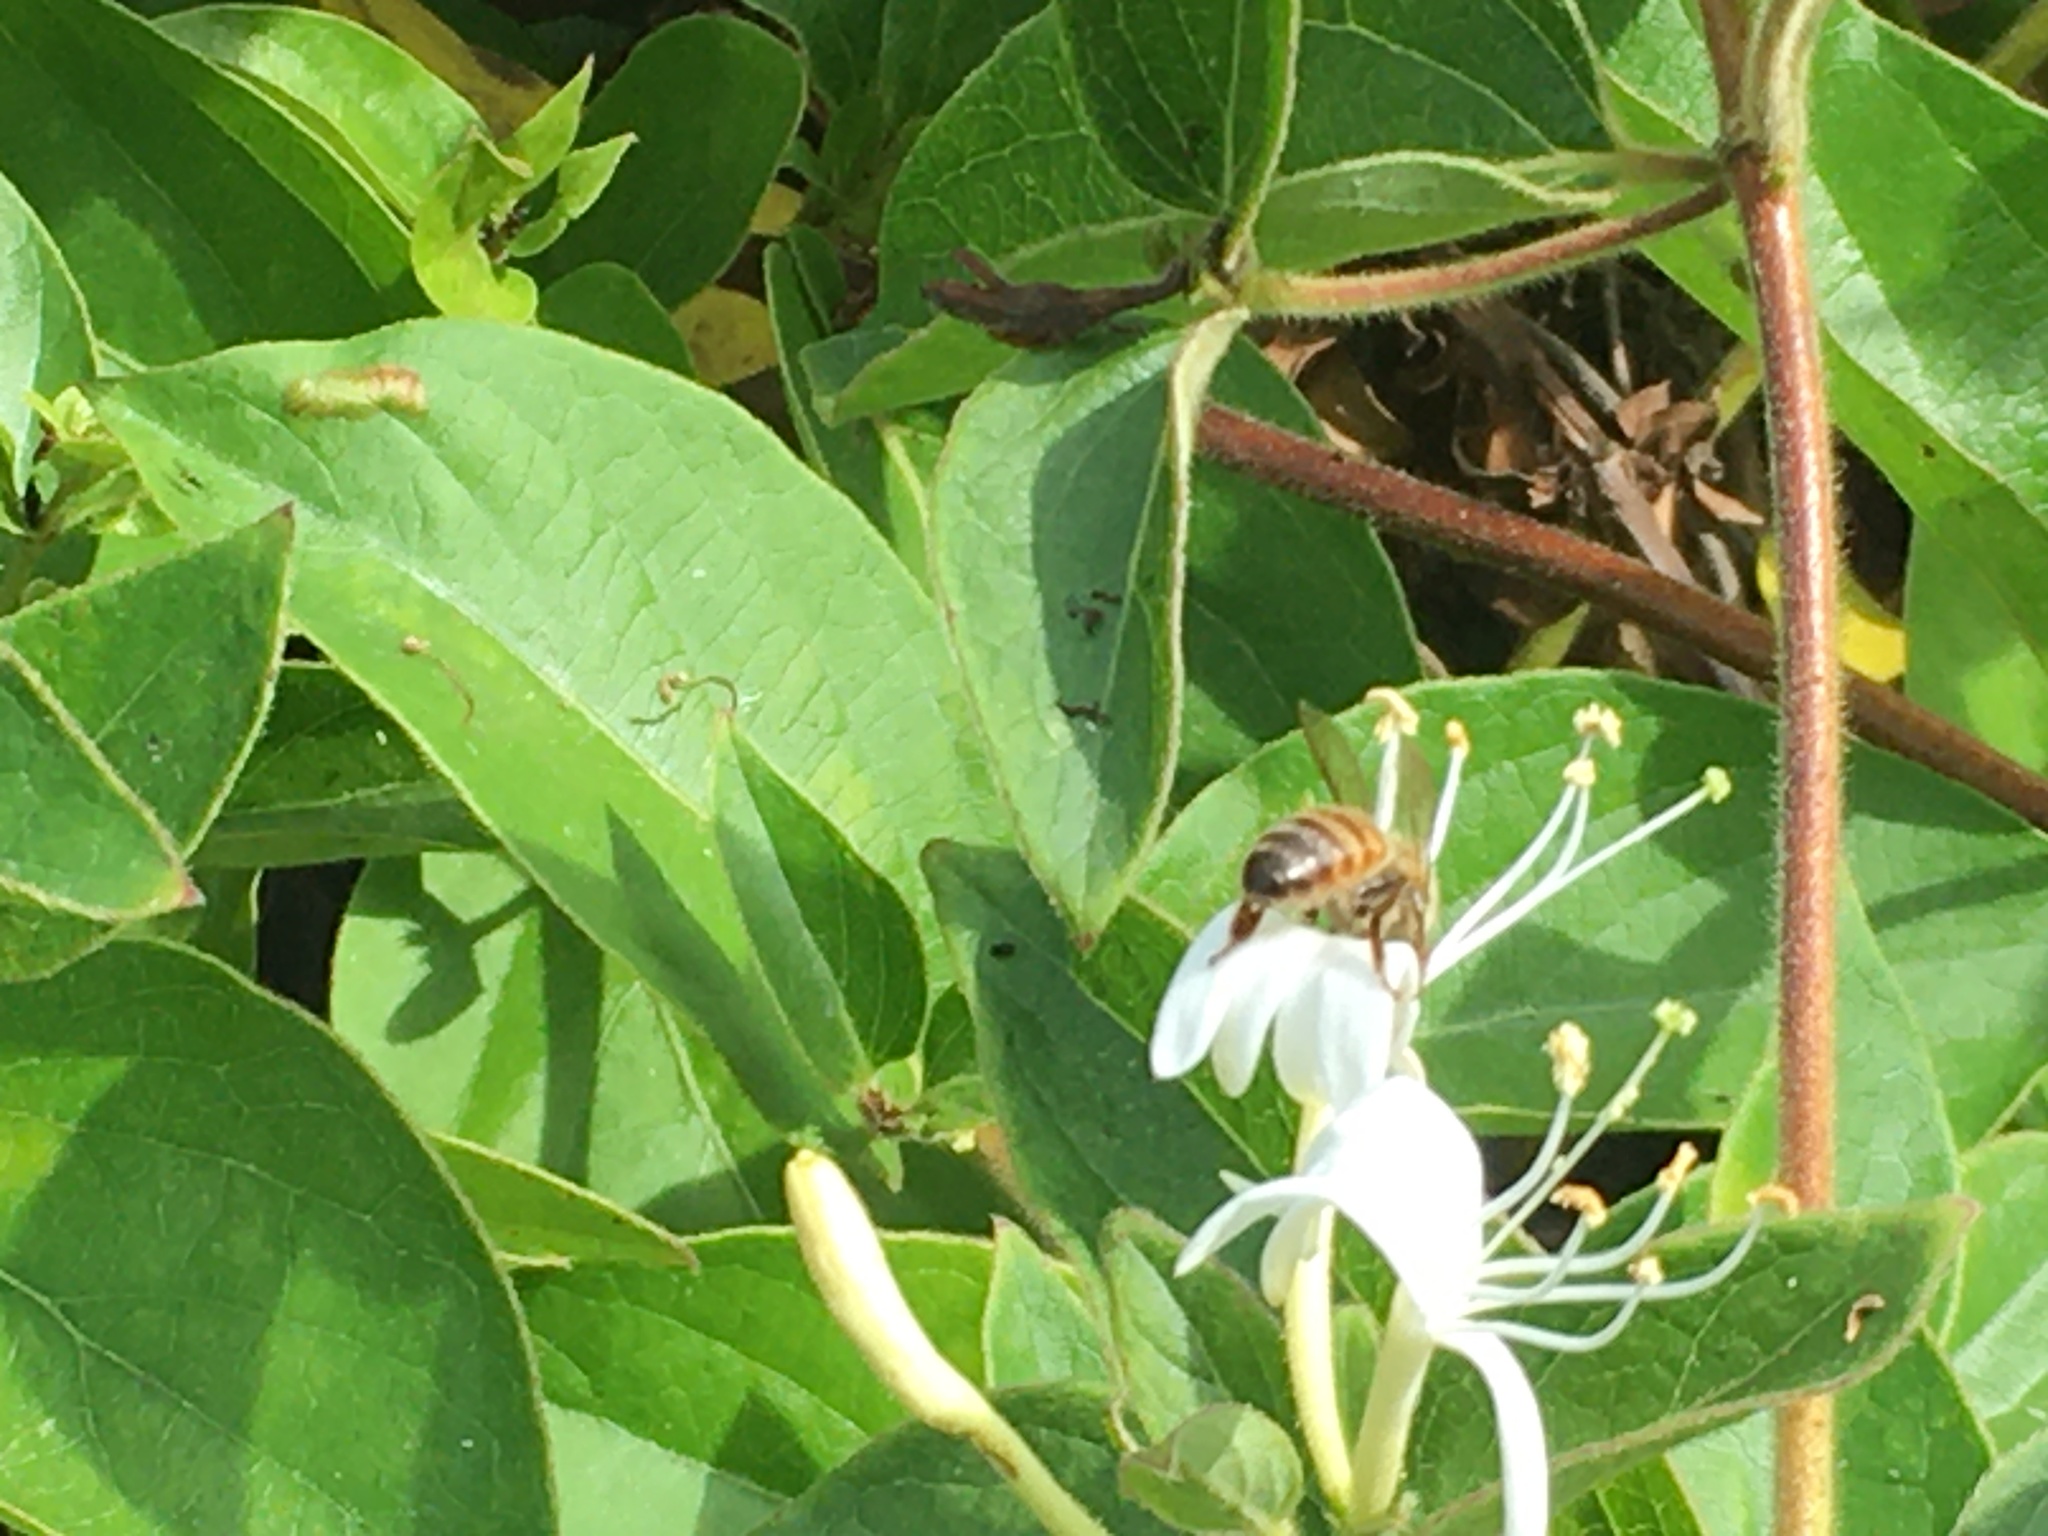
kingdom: Animalia
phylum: Arthropoda
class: Insecta
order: Hymenoptera
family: Apidae
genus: Apis
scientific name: Apis mellifera
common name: Honey bee
